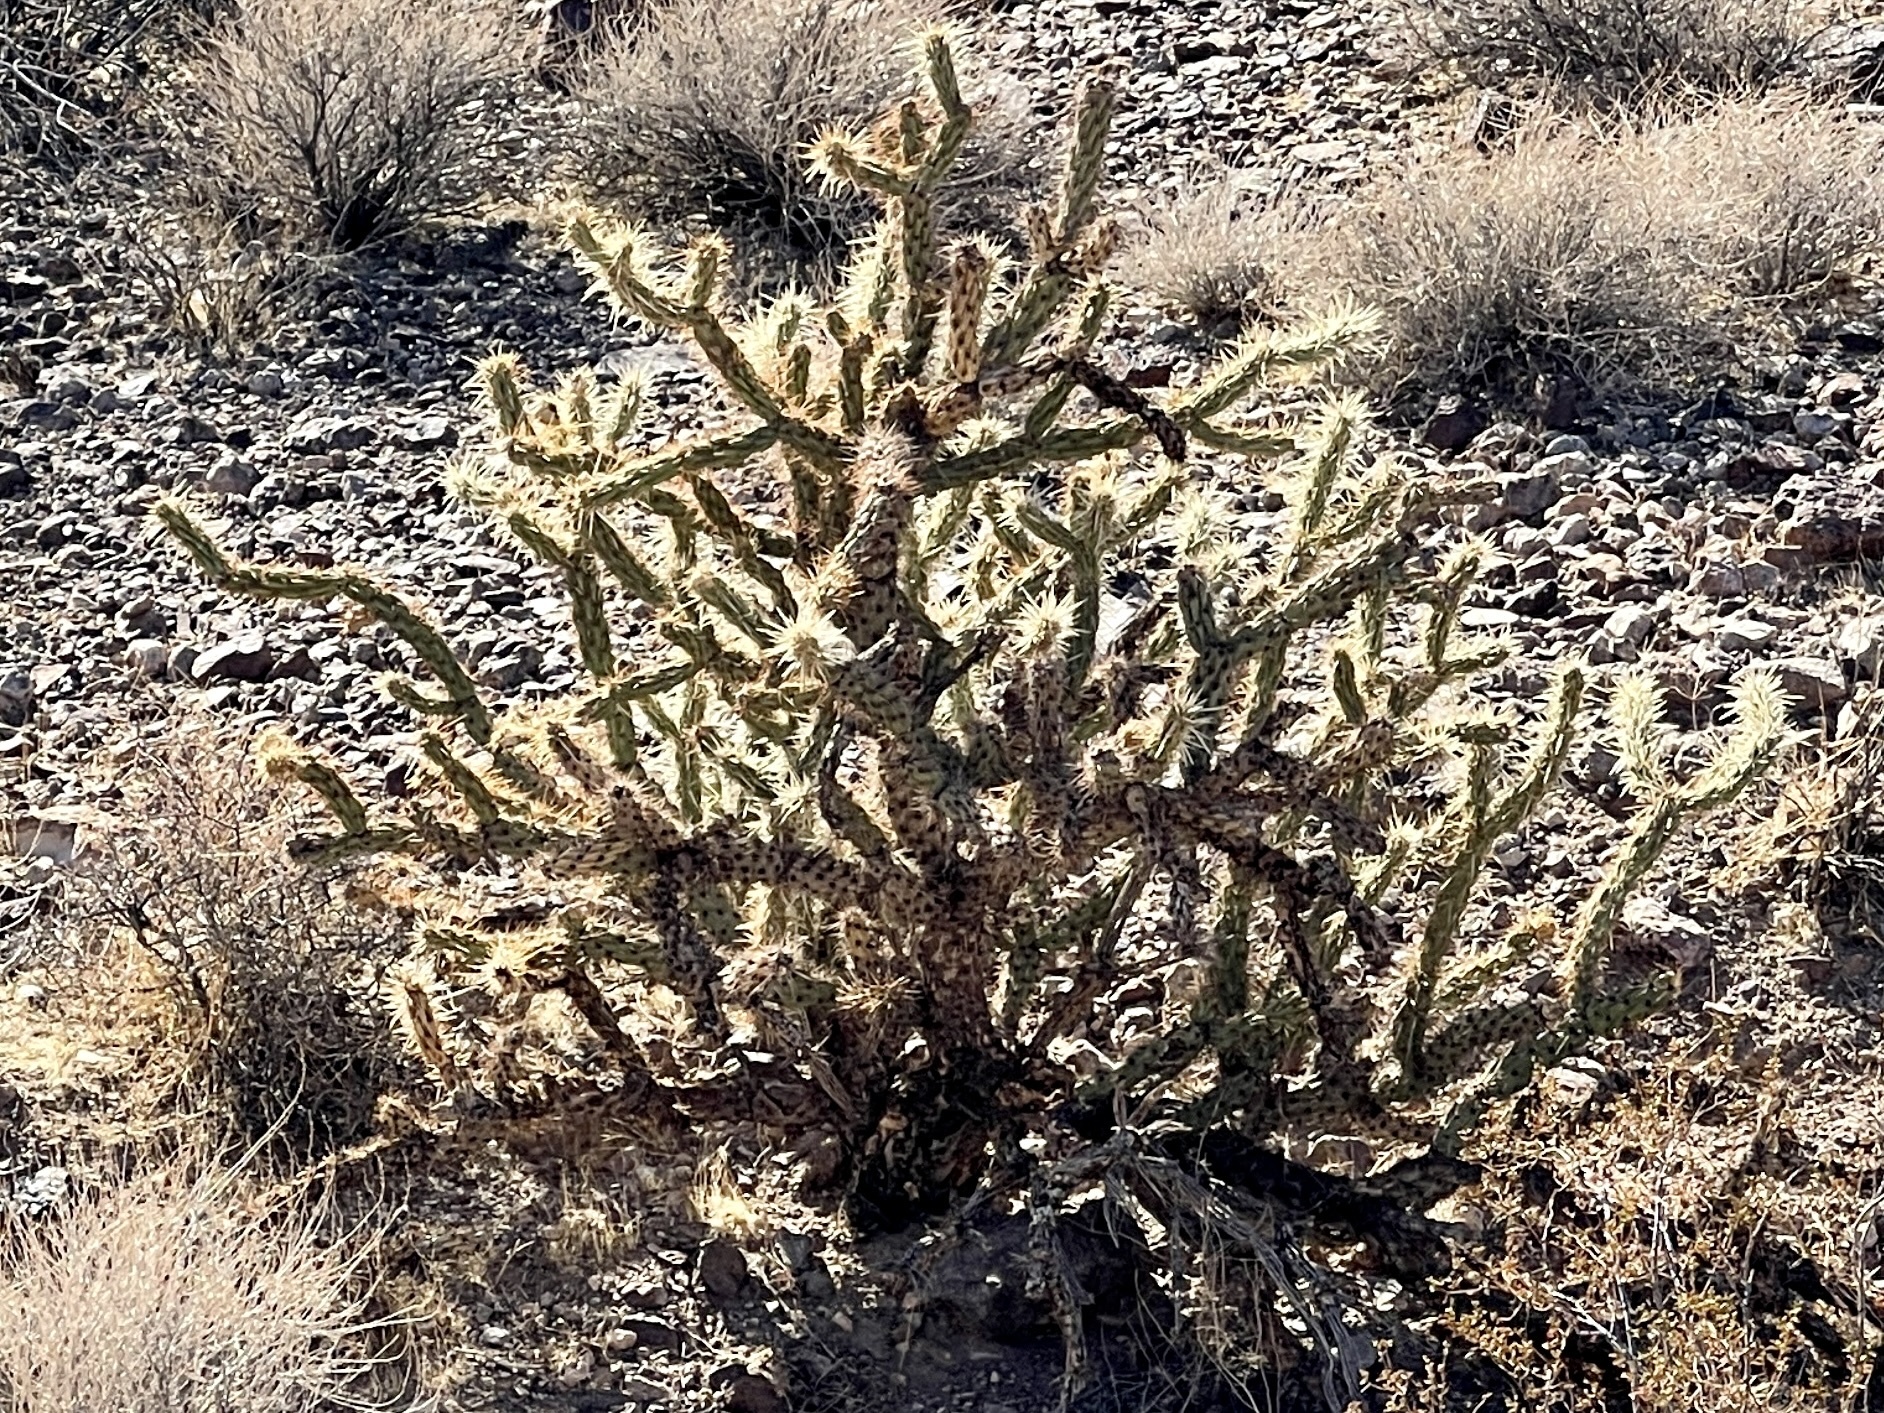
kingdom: Plantae
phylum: Tracheophyta
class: Magnoliopsida
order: Caryophyllales
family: Cactaceae
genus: Cylindropuntia
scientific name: Cylindropuntia acanthocarpa
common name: Buckhorn cholla
